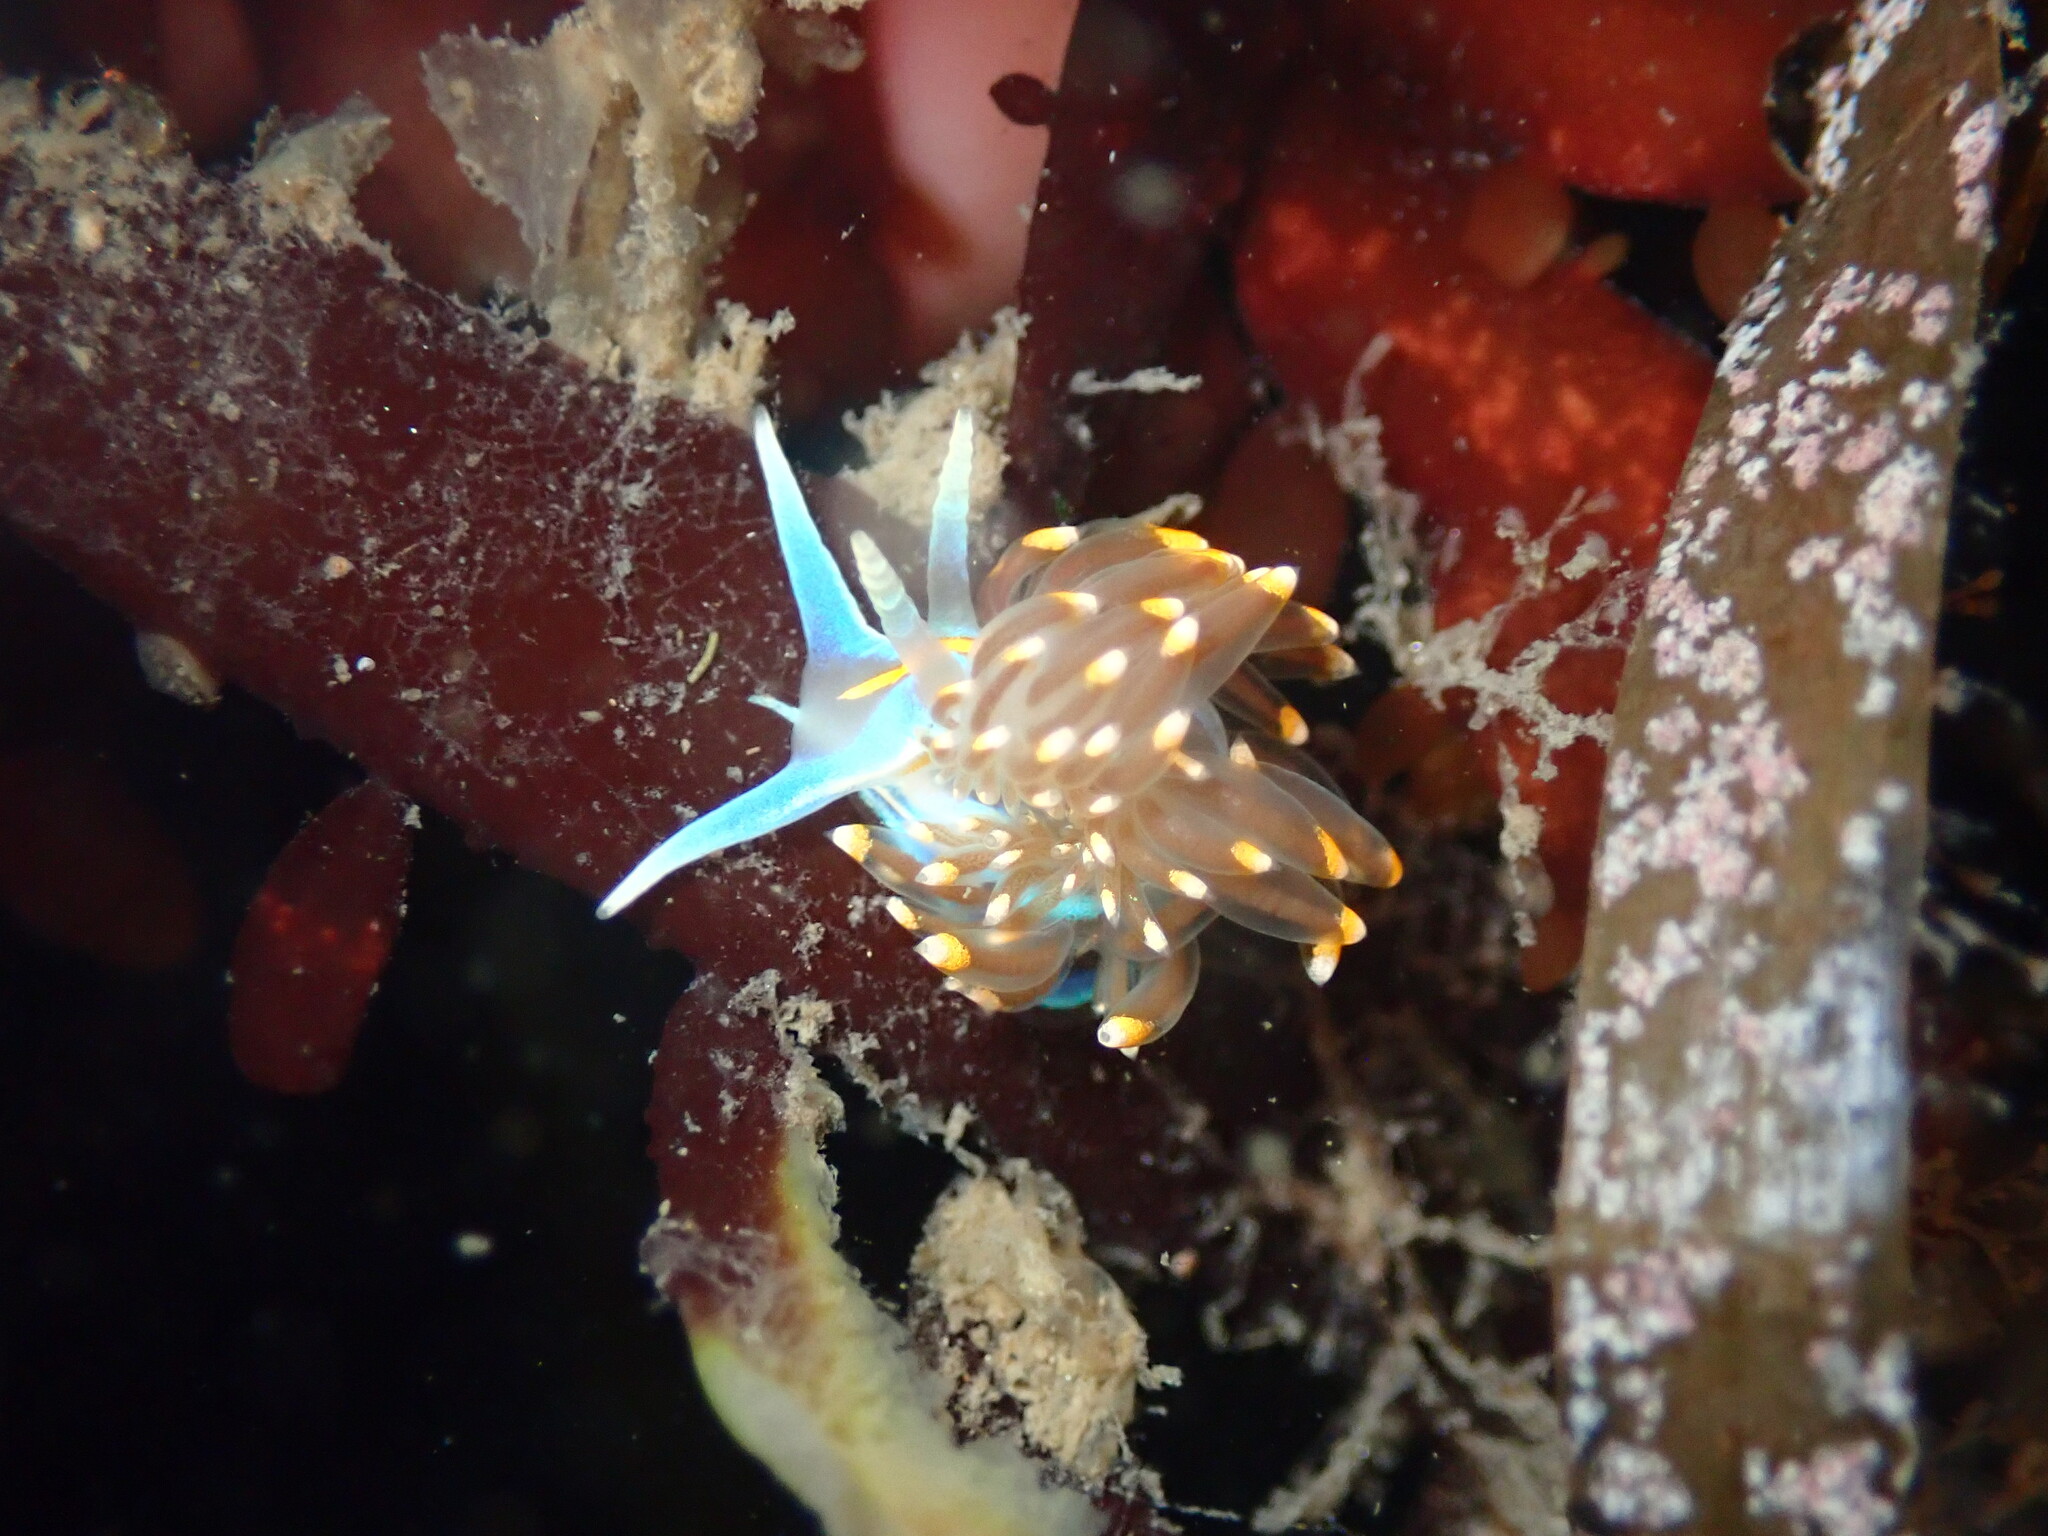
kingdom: Animalia
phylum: Mollusca
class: Gastropoda
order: Nudibranchia
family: Myrrhinidae
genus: Hermissenda
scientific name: Hermissenda opalescens
